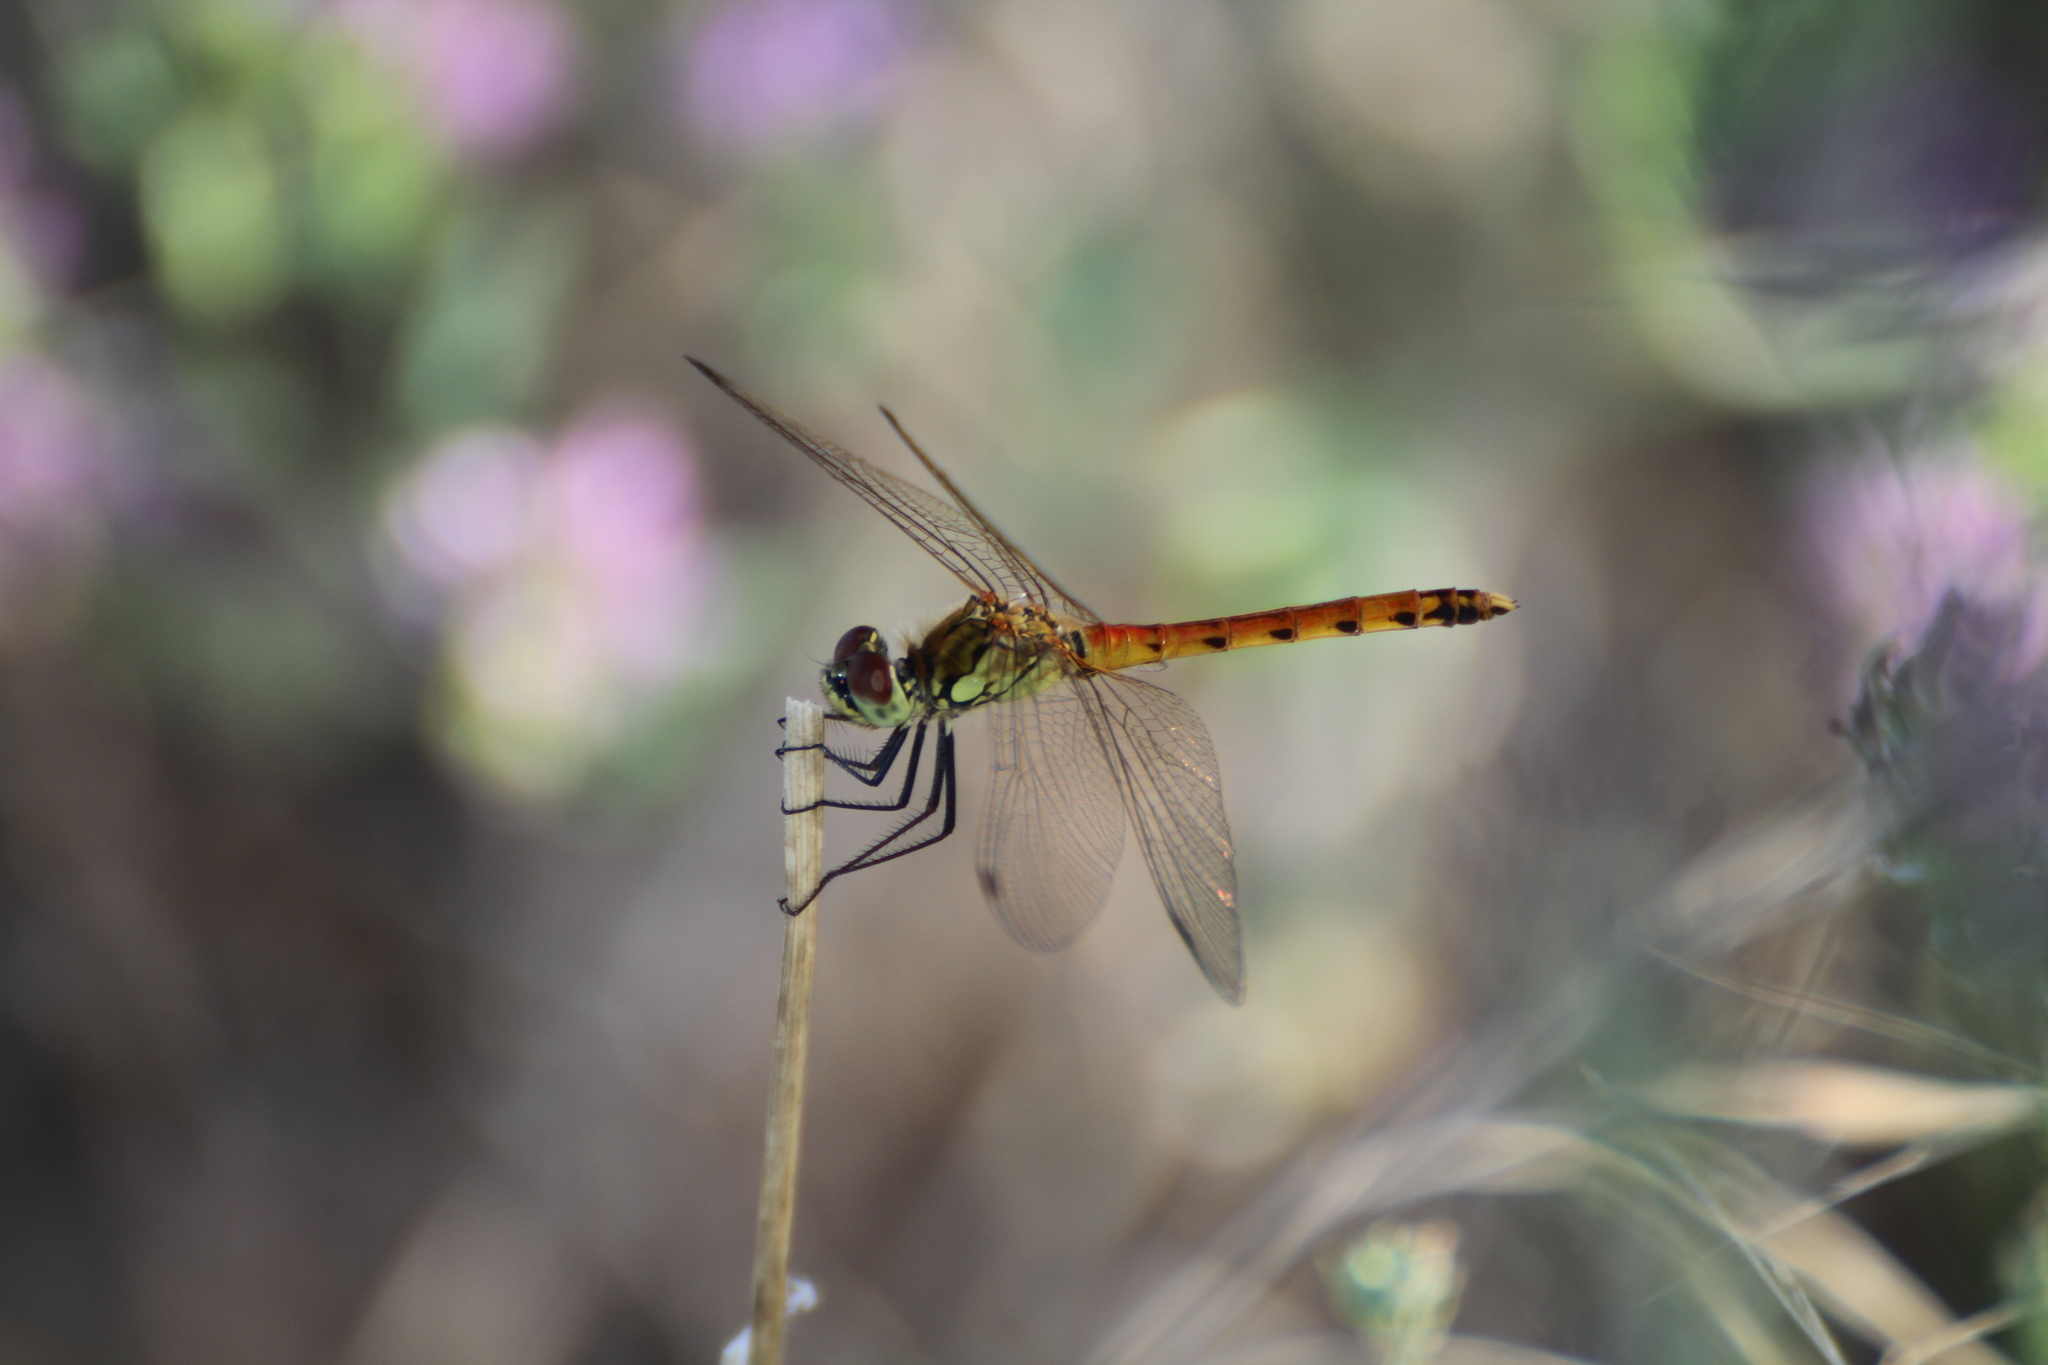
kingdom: Animalia
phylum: Arthropoda
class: Insecta
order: Odonata
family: Libellulidae
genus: Sympetrum
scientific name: Sympetrum depressiusculum
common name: Spotted darter
